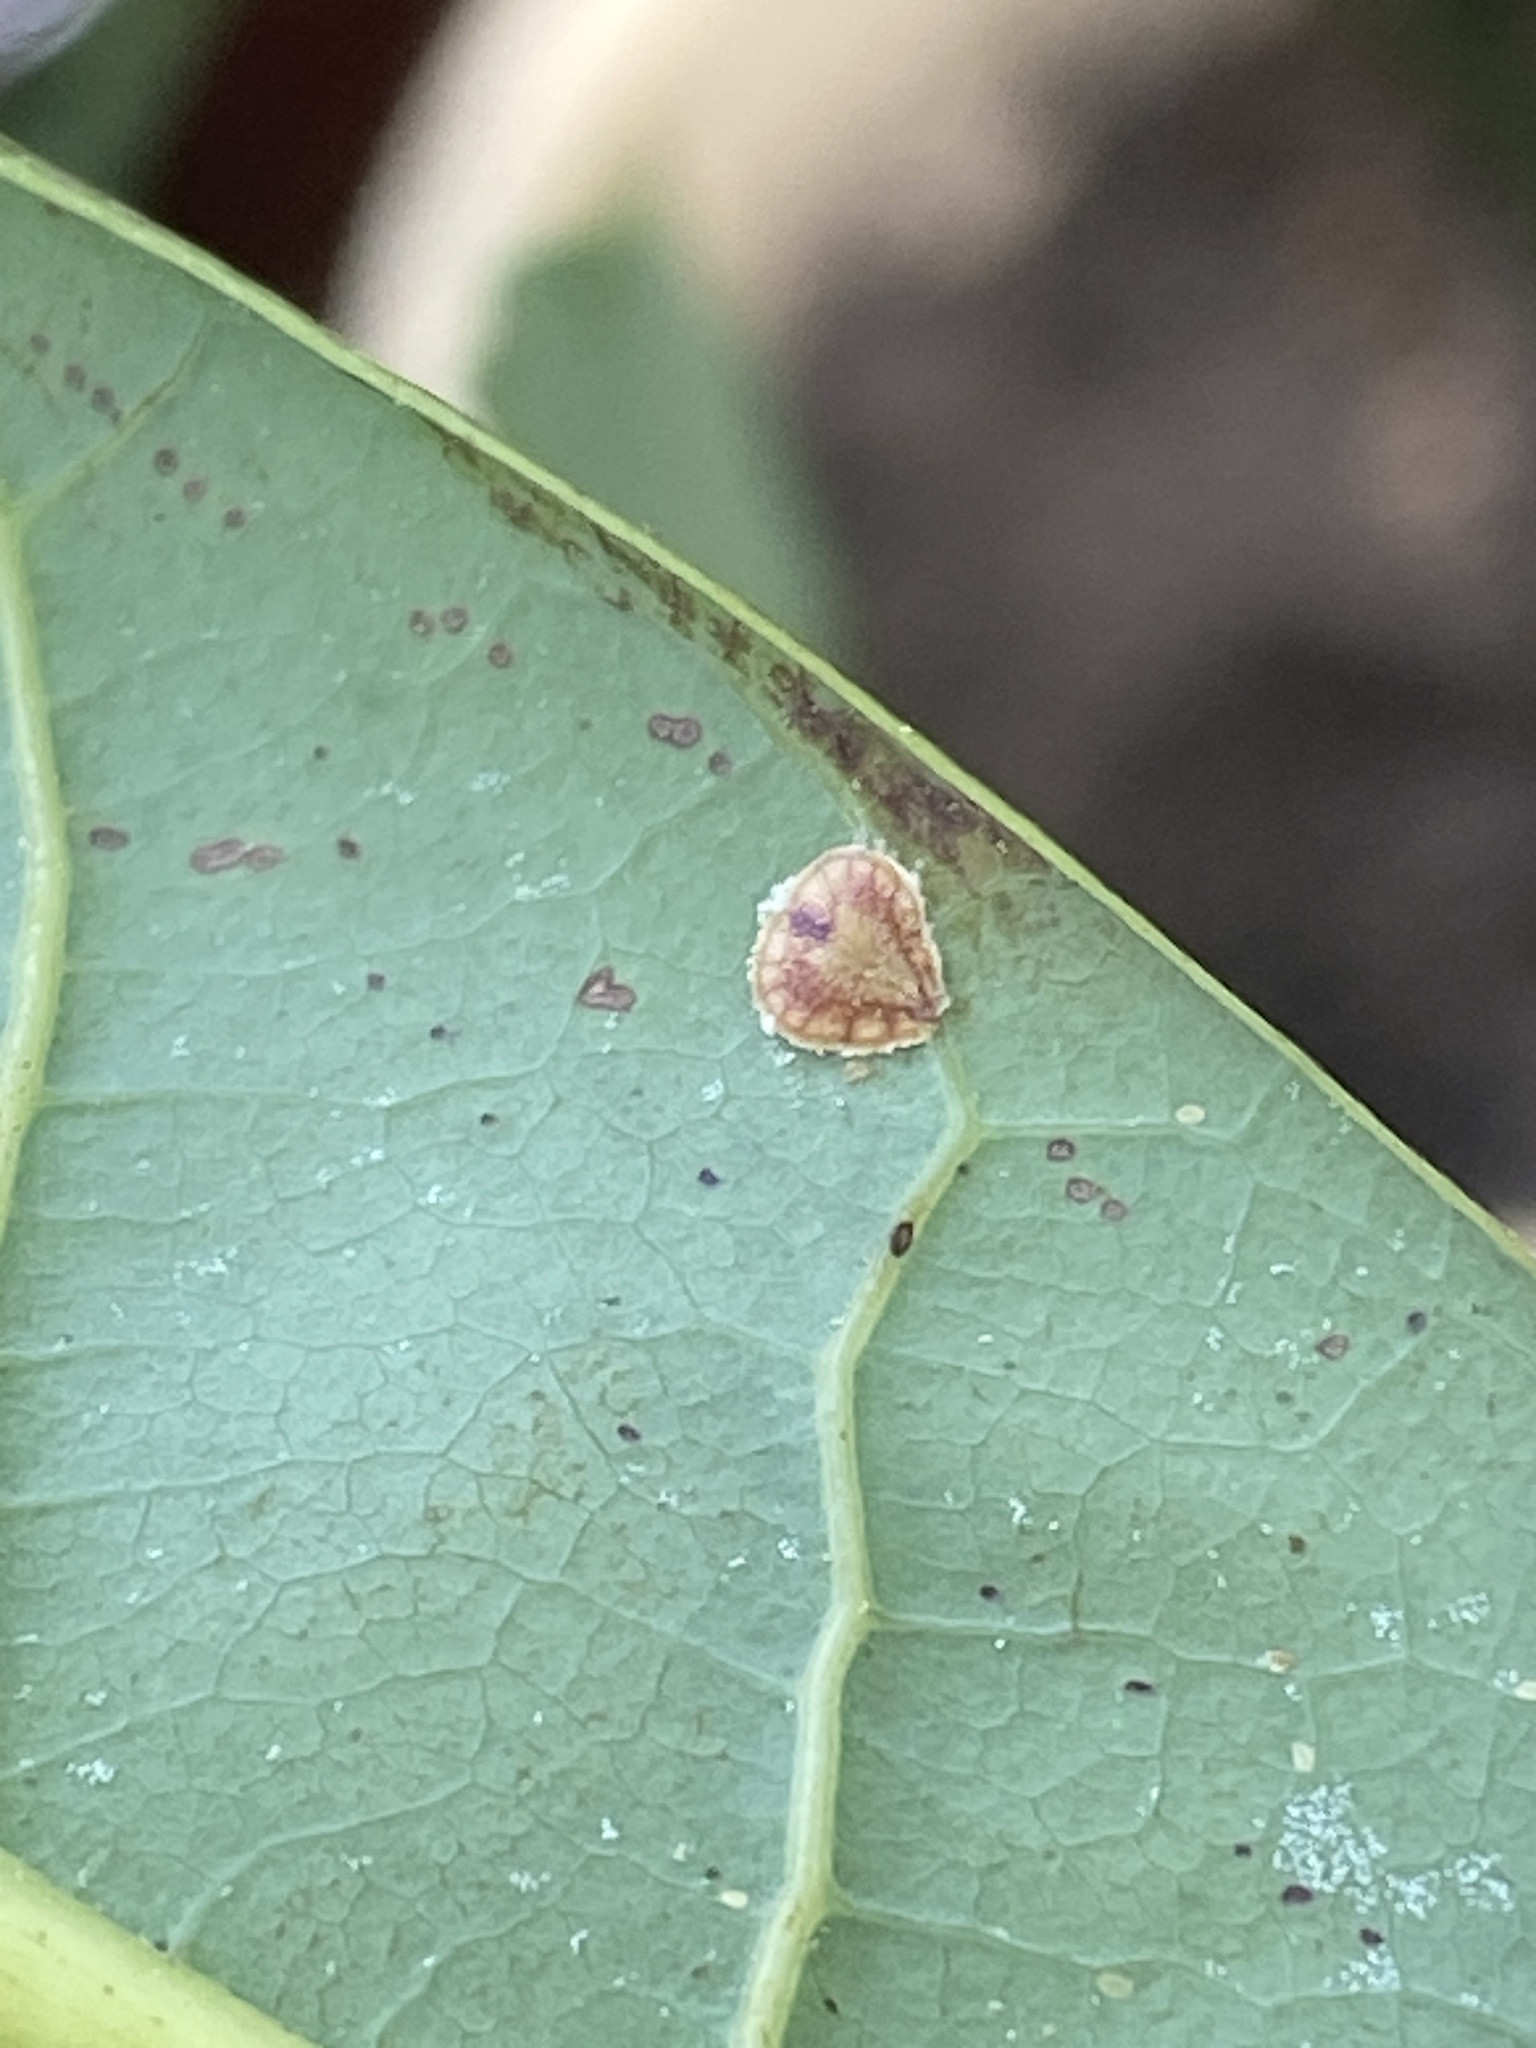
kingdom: Animalia
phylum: Arthropoda
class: Insecta
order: Hemiptera
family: Coccidae
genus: Protopulvinaria
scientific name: Protopulvinaria pyriformis
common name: Pyriform scale
